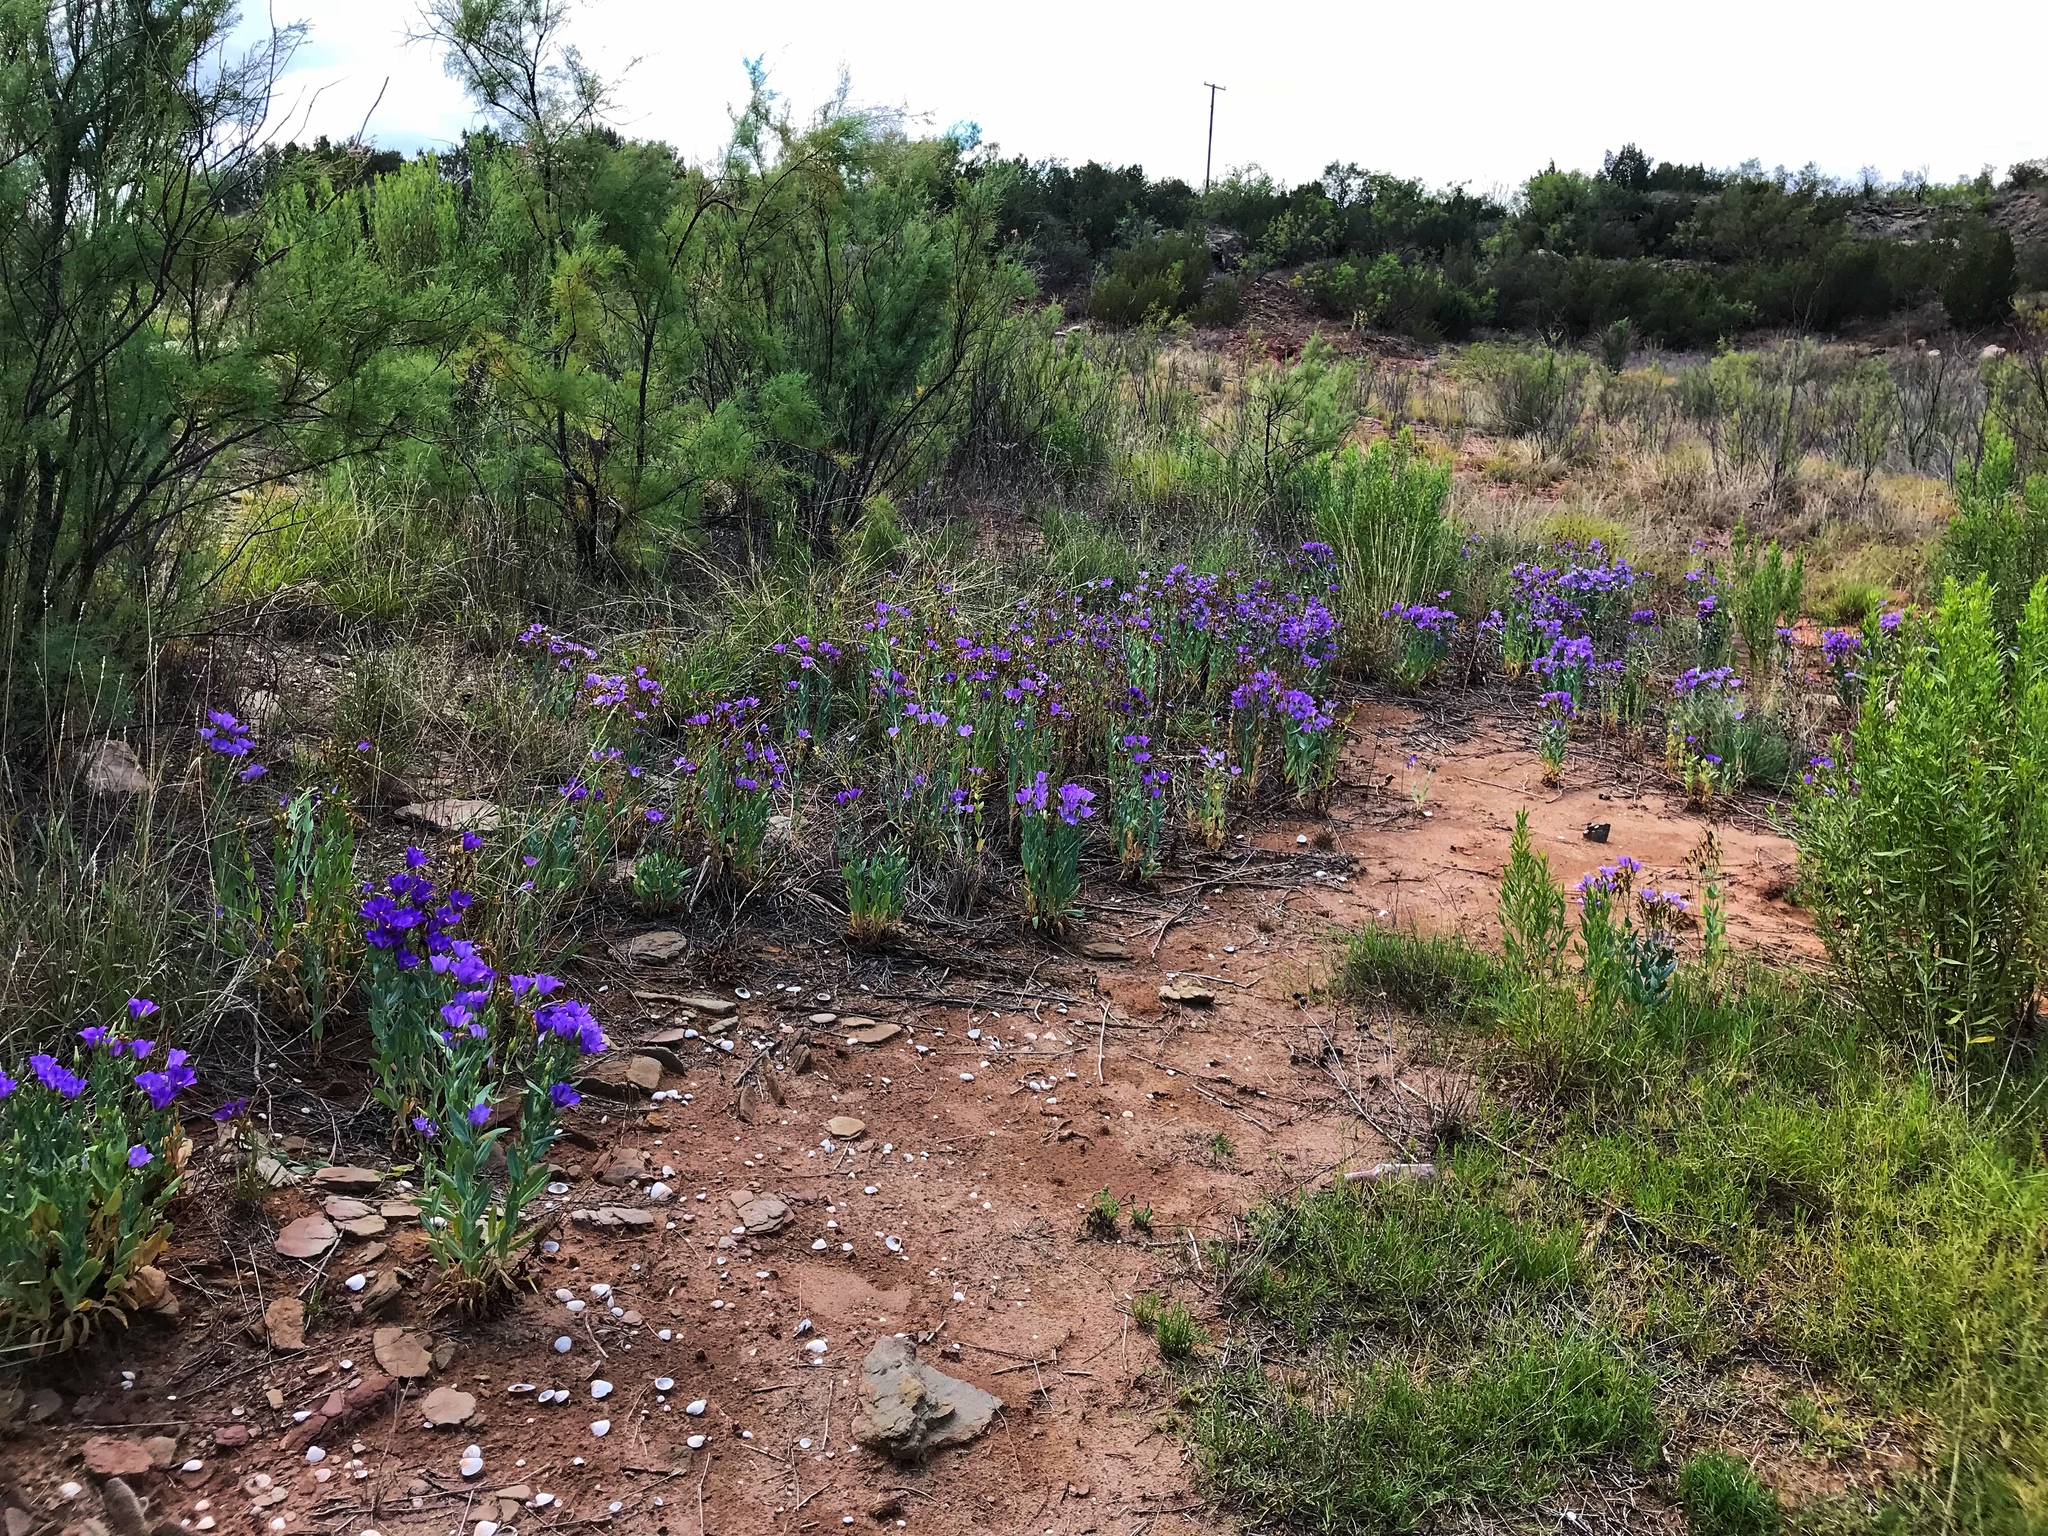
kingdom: Plantae
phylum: Tracheophyta
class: Magnoliopsida
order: Gentianales
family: Gentianaceae
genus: Eustoma
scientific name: Eustoma russellianum
